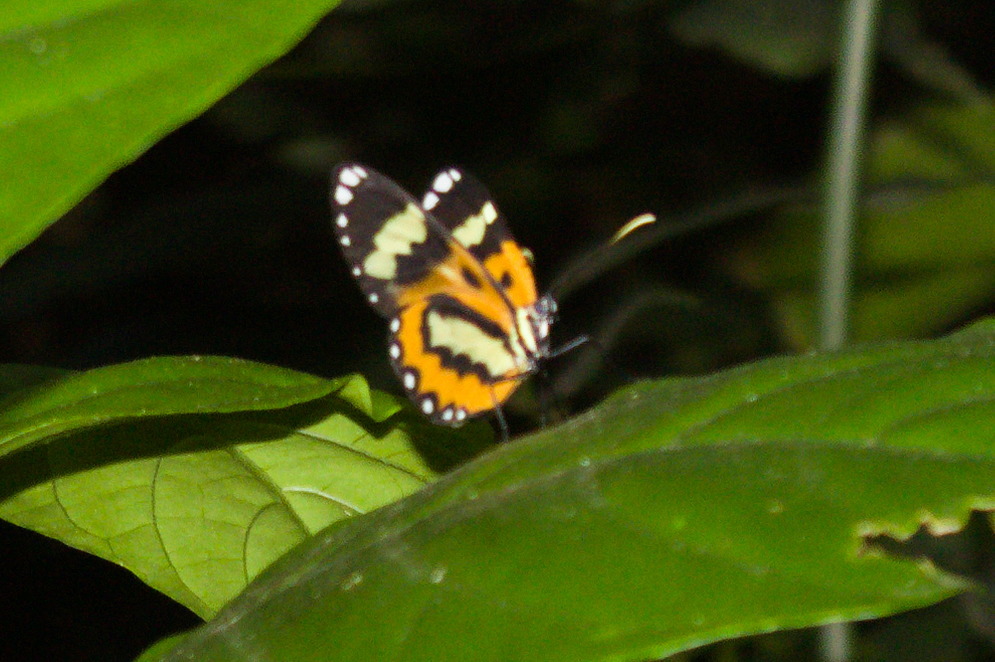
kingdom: Animalia
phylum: Arthropoda
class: Insecta
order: Lepidoptera
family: Nymphalidae
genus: Placidina
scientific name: Placidina euryanassa
